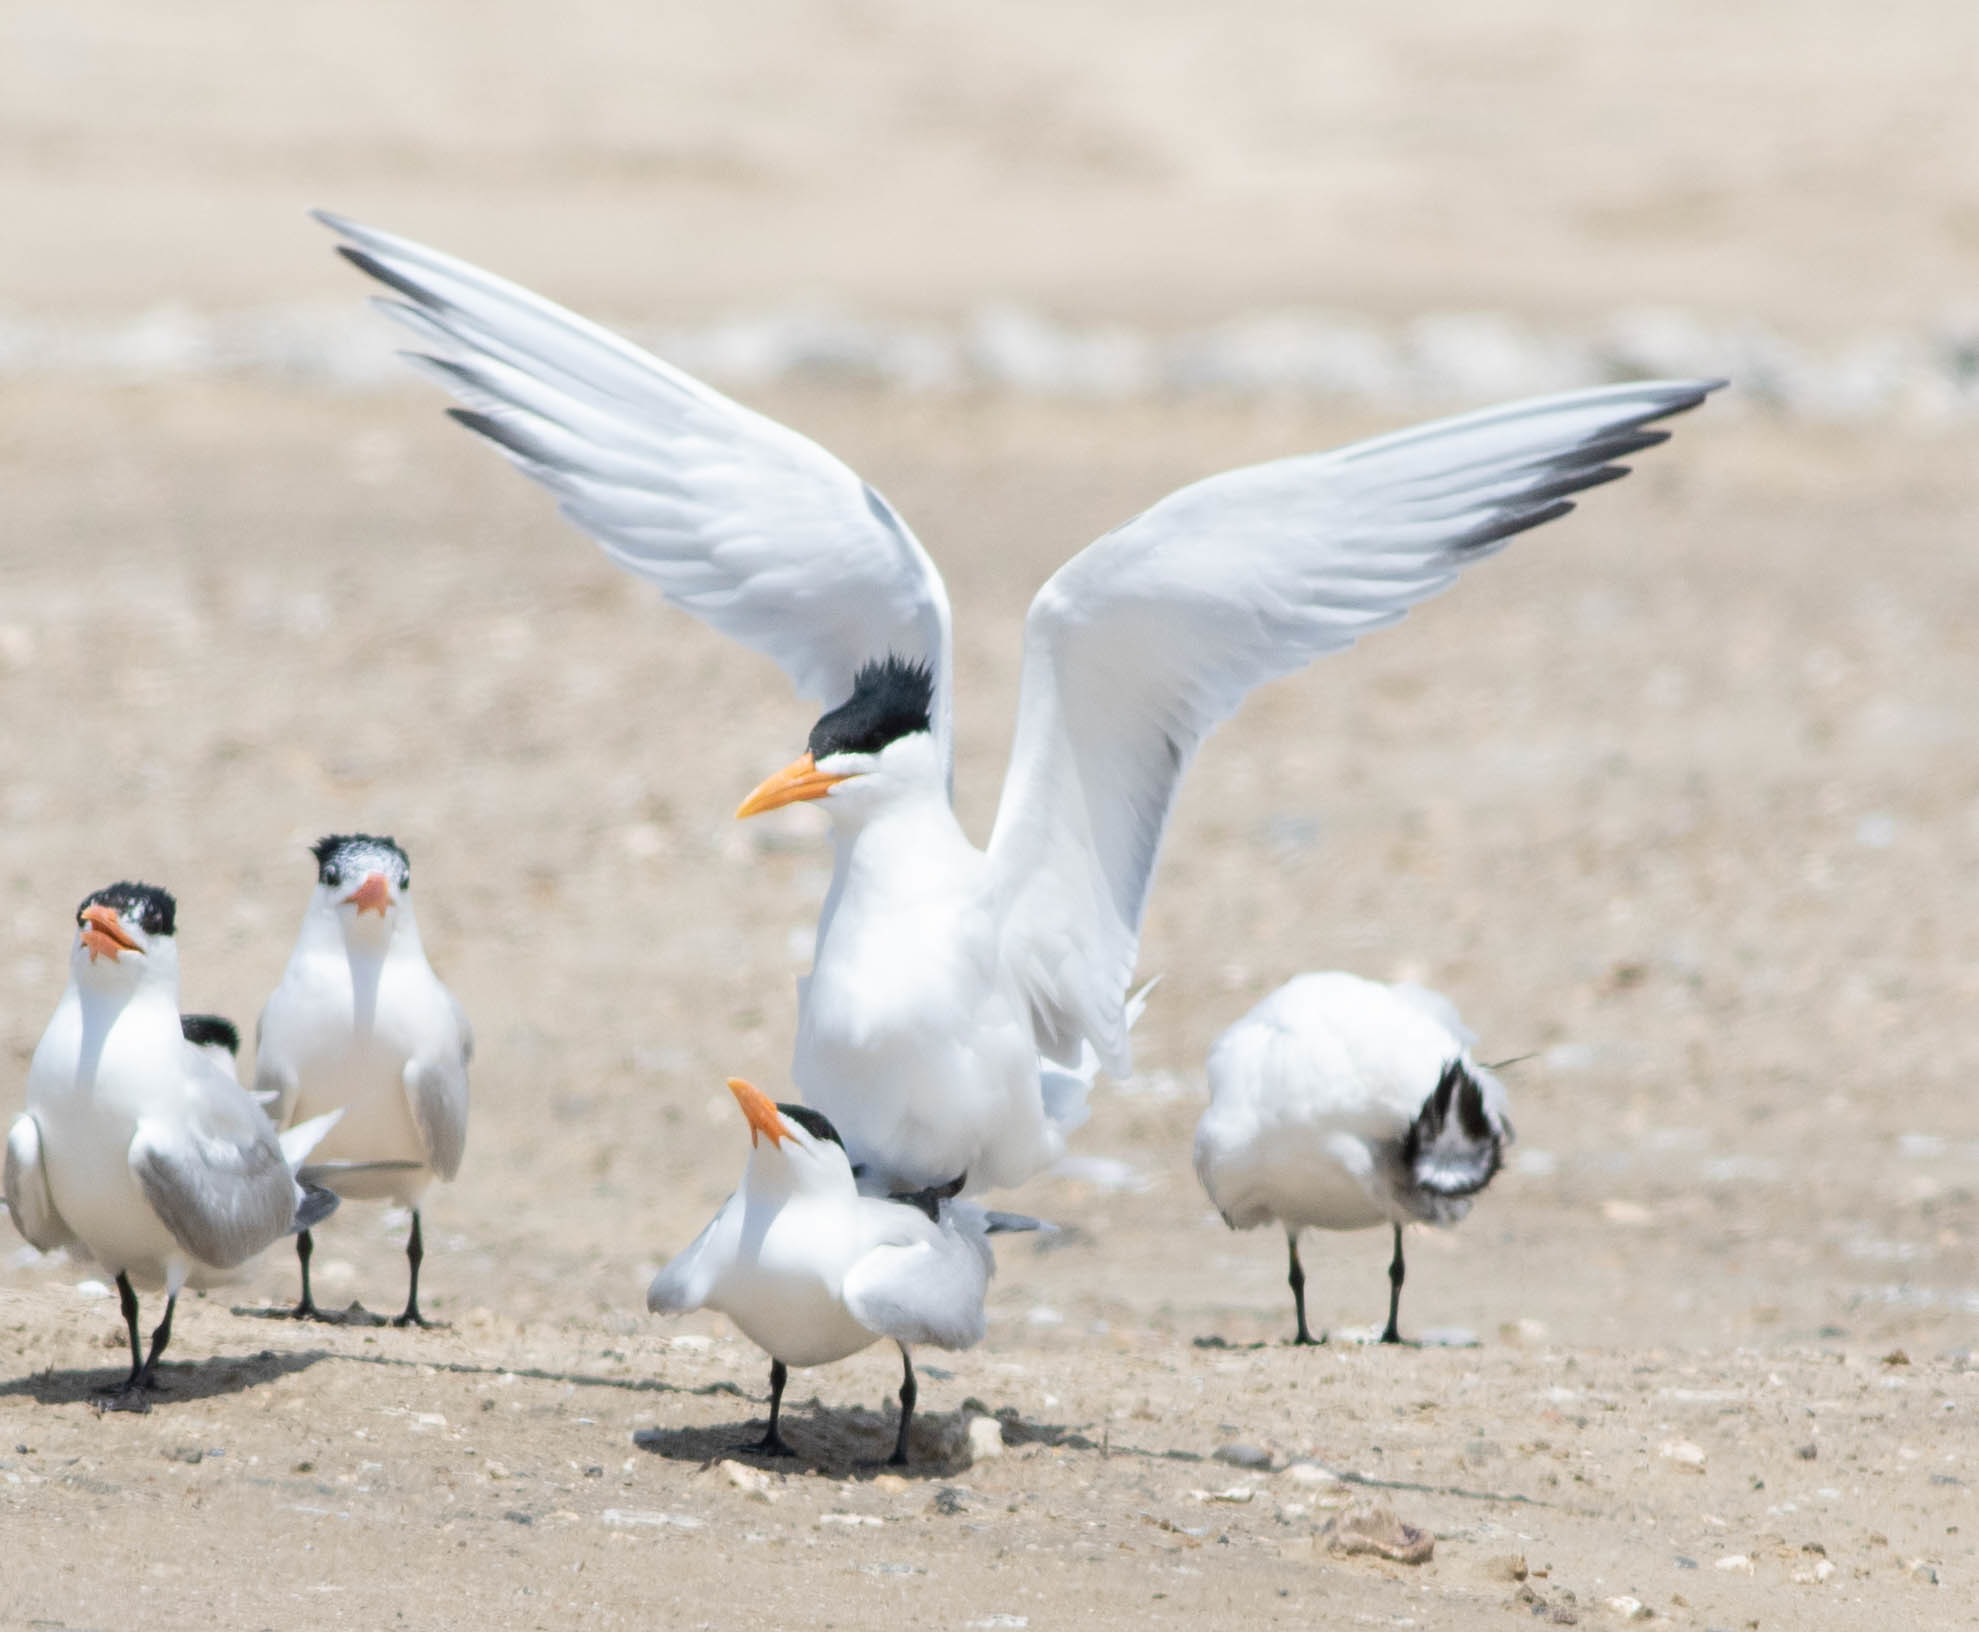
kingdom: Animalia
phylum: Chordata
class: Aves
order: Charadriiformes
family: Laridae
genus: Thalasseus
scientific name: Thalasseus maximus
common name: Royal tern
